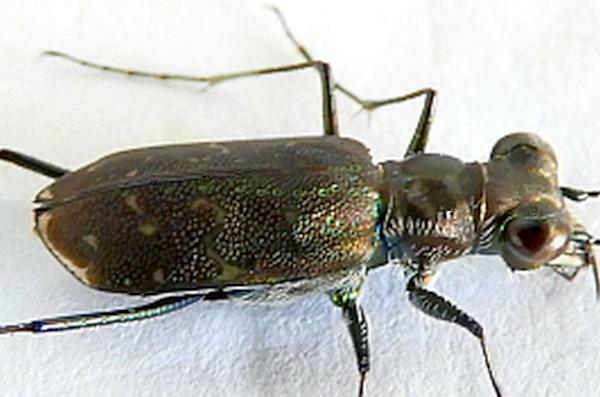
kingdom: Animalia
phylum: Arthropoda
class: Insecta
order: Coleoptera
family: Carabidae
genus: Cicindela
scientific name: Cicindela trifasciata
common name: Mudflat tiger beetle
